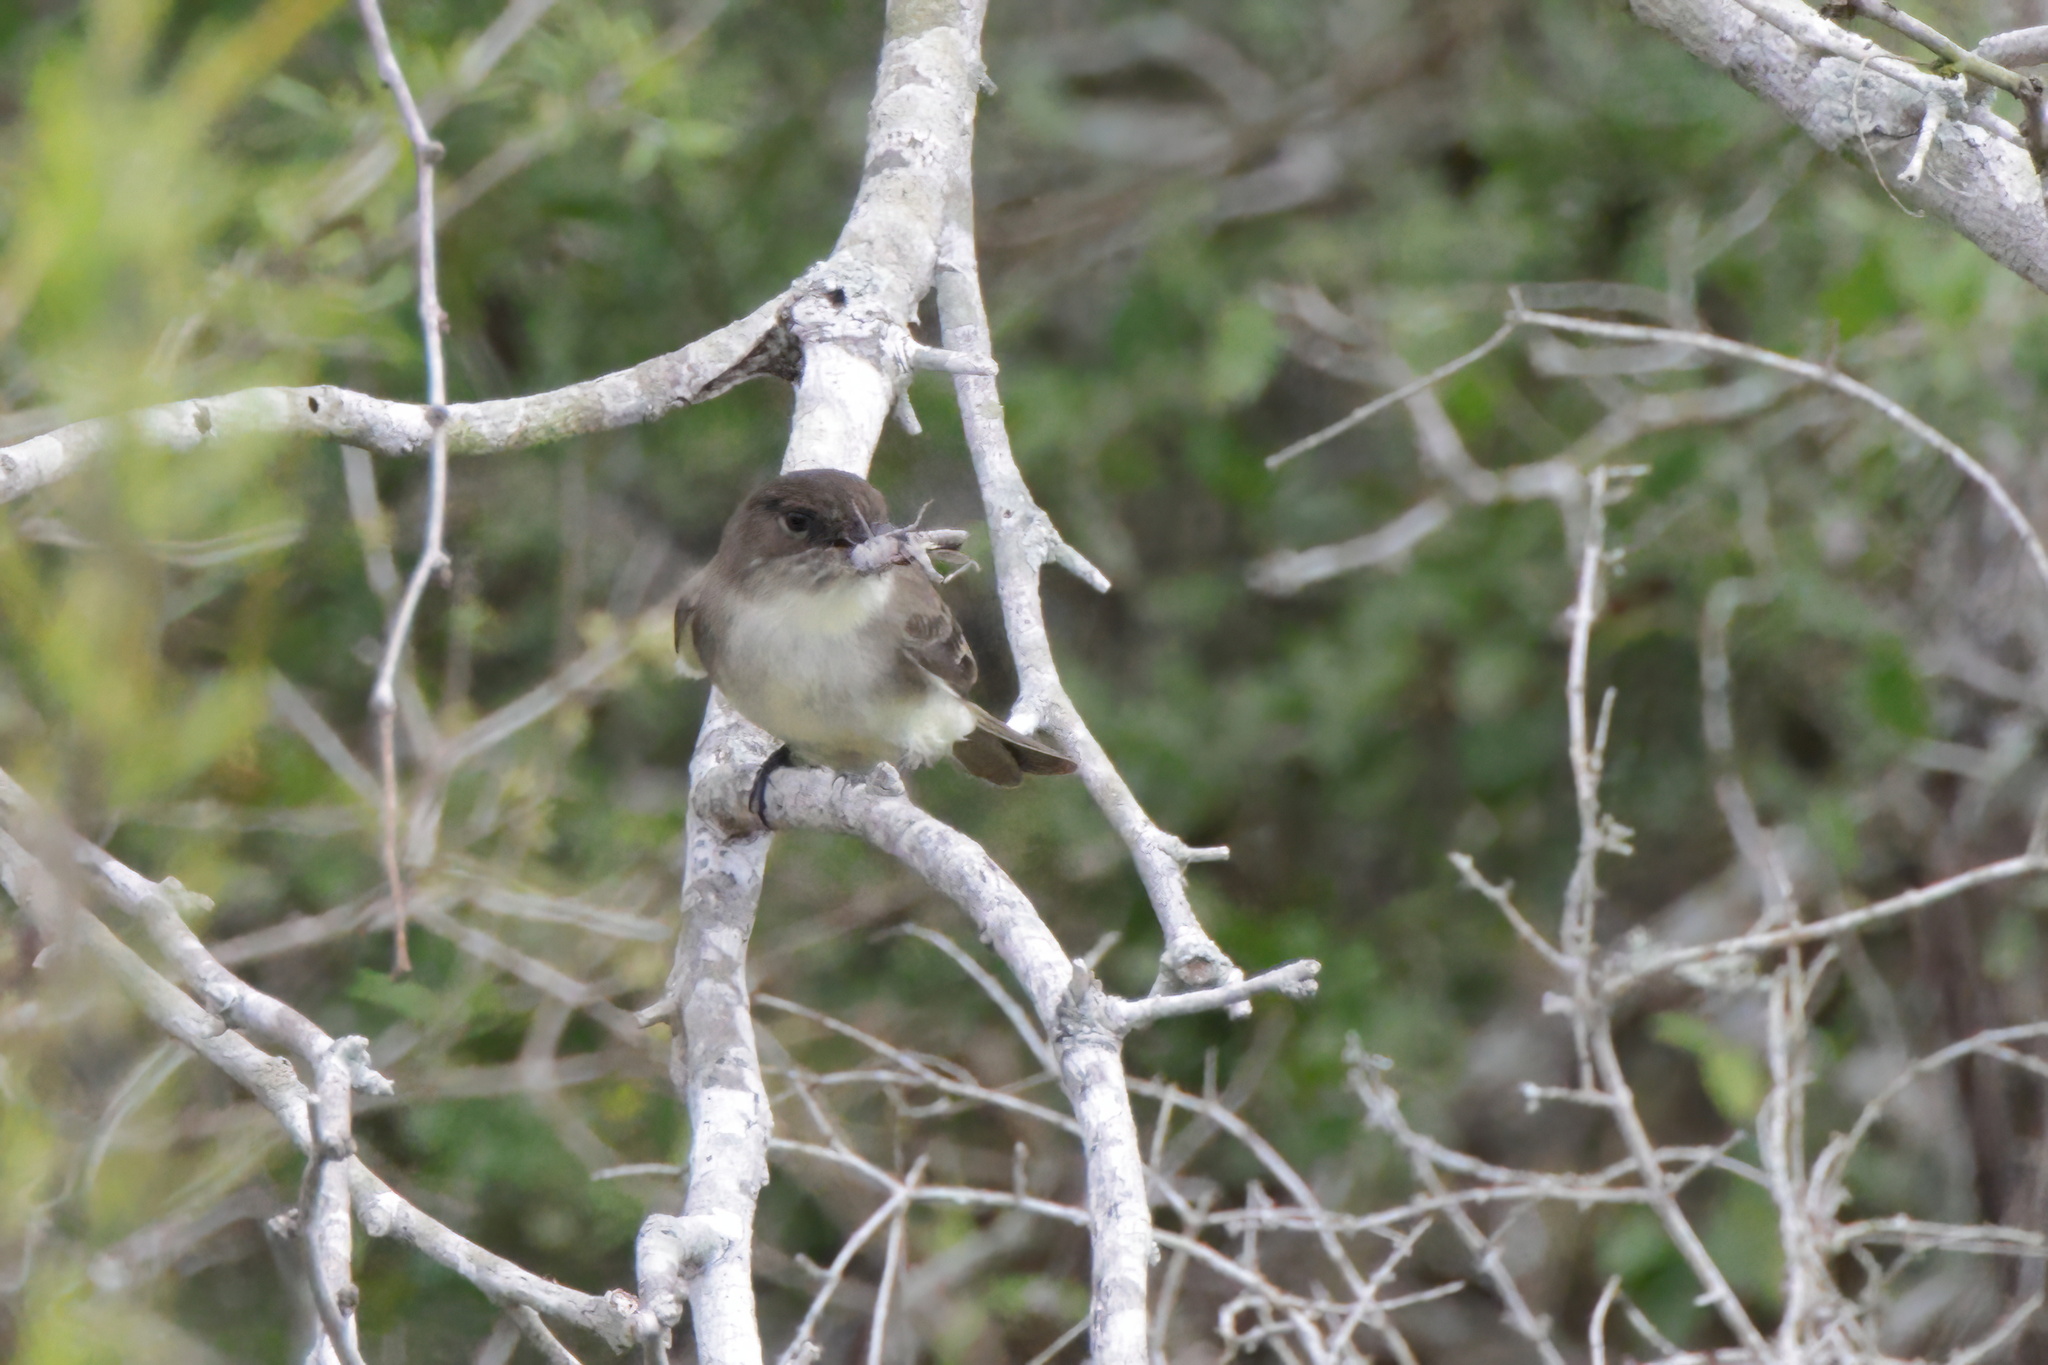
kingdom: Animalia
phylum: Chordata
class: Aves
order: Passeriformes
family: Tyrannidae
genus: Sayornis
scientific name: Sayornis phoebe
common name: Eastern phoebe
